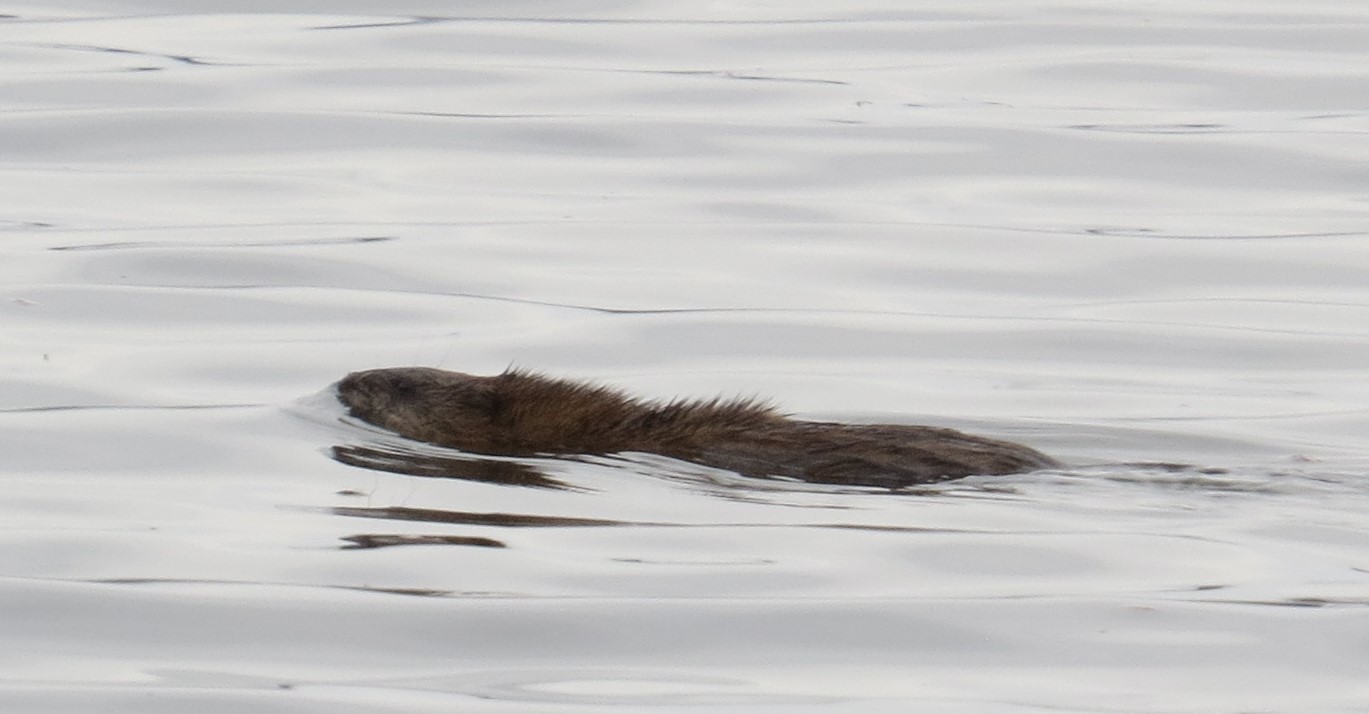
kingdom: Animalia
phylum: Chordata
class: Mammalia
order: Rodentia
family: Cricetidae
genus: Ondatra
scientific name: Ondatra zibethicus
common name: Muskrat
